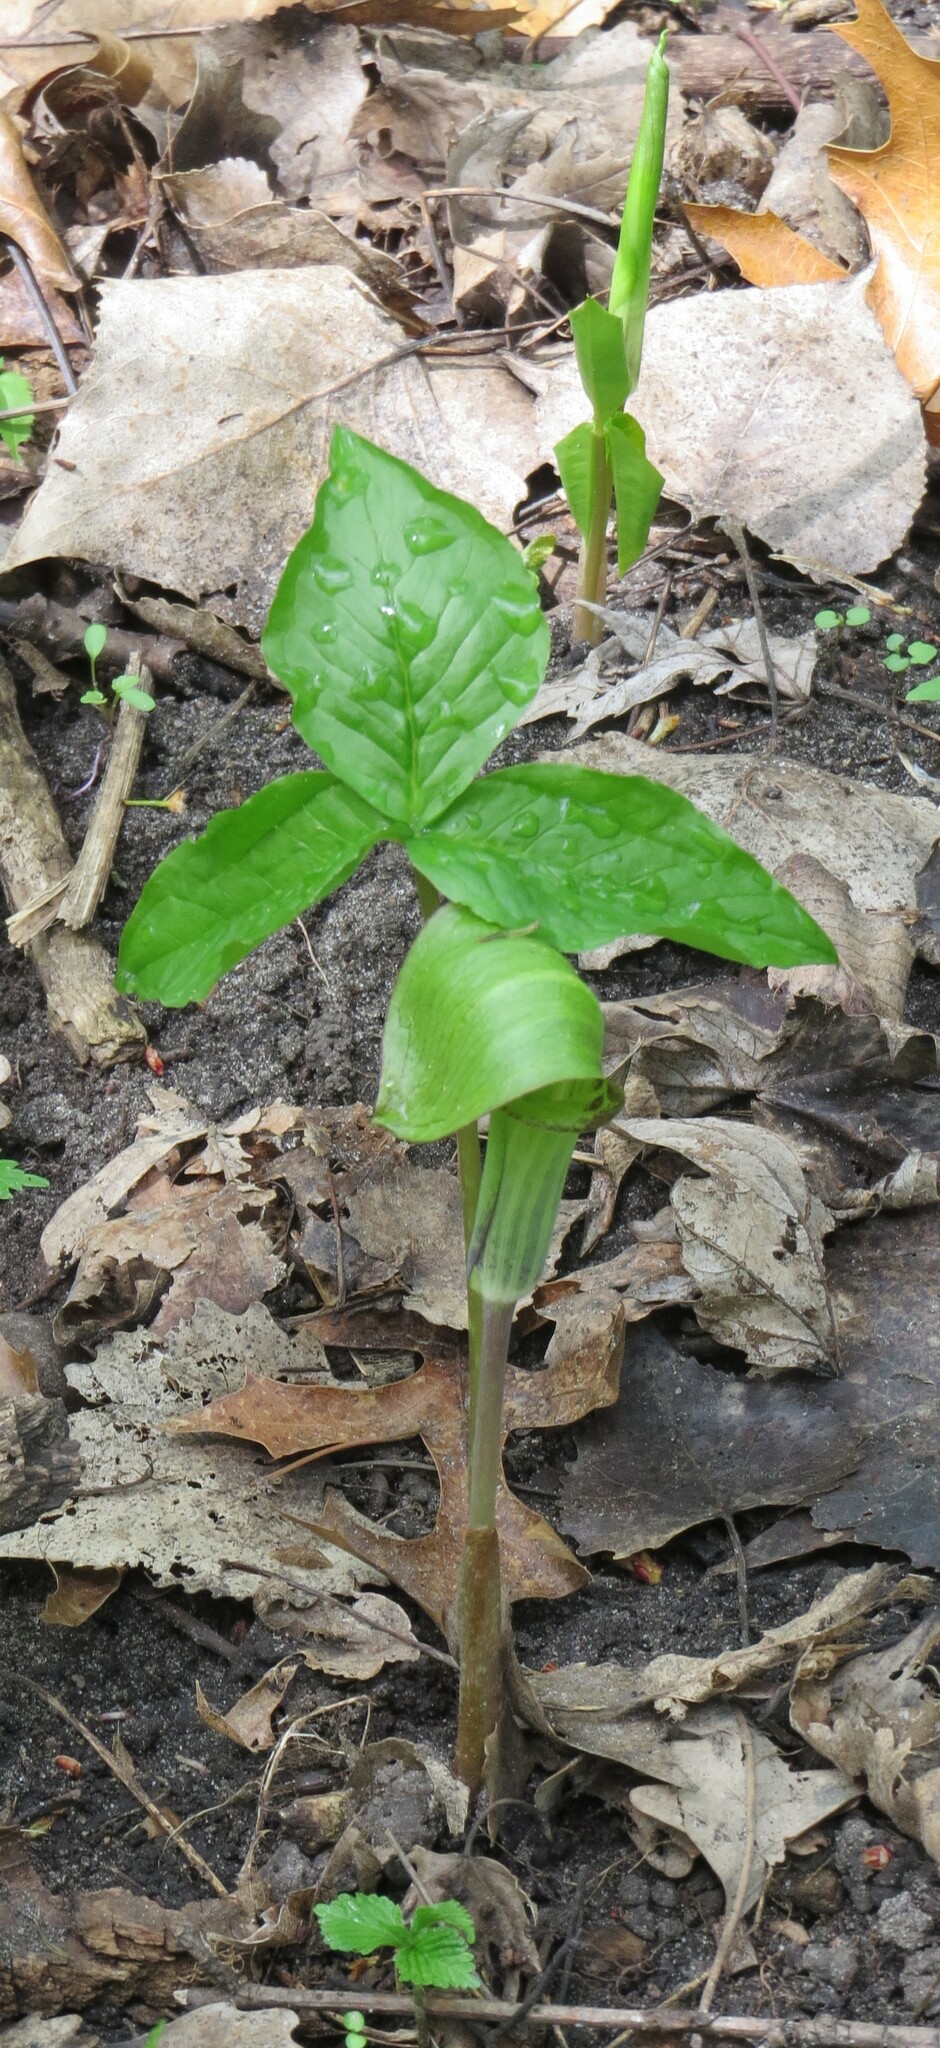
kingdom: Plantae
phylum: Tracheophyta
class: Liliopsida
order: Alismatales
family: Araceae
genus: Arisaema
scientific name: Arisaema triphyllum
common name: Jack-in-the-pulpit
